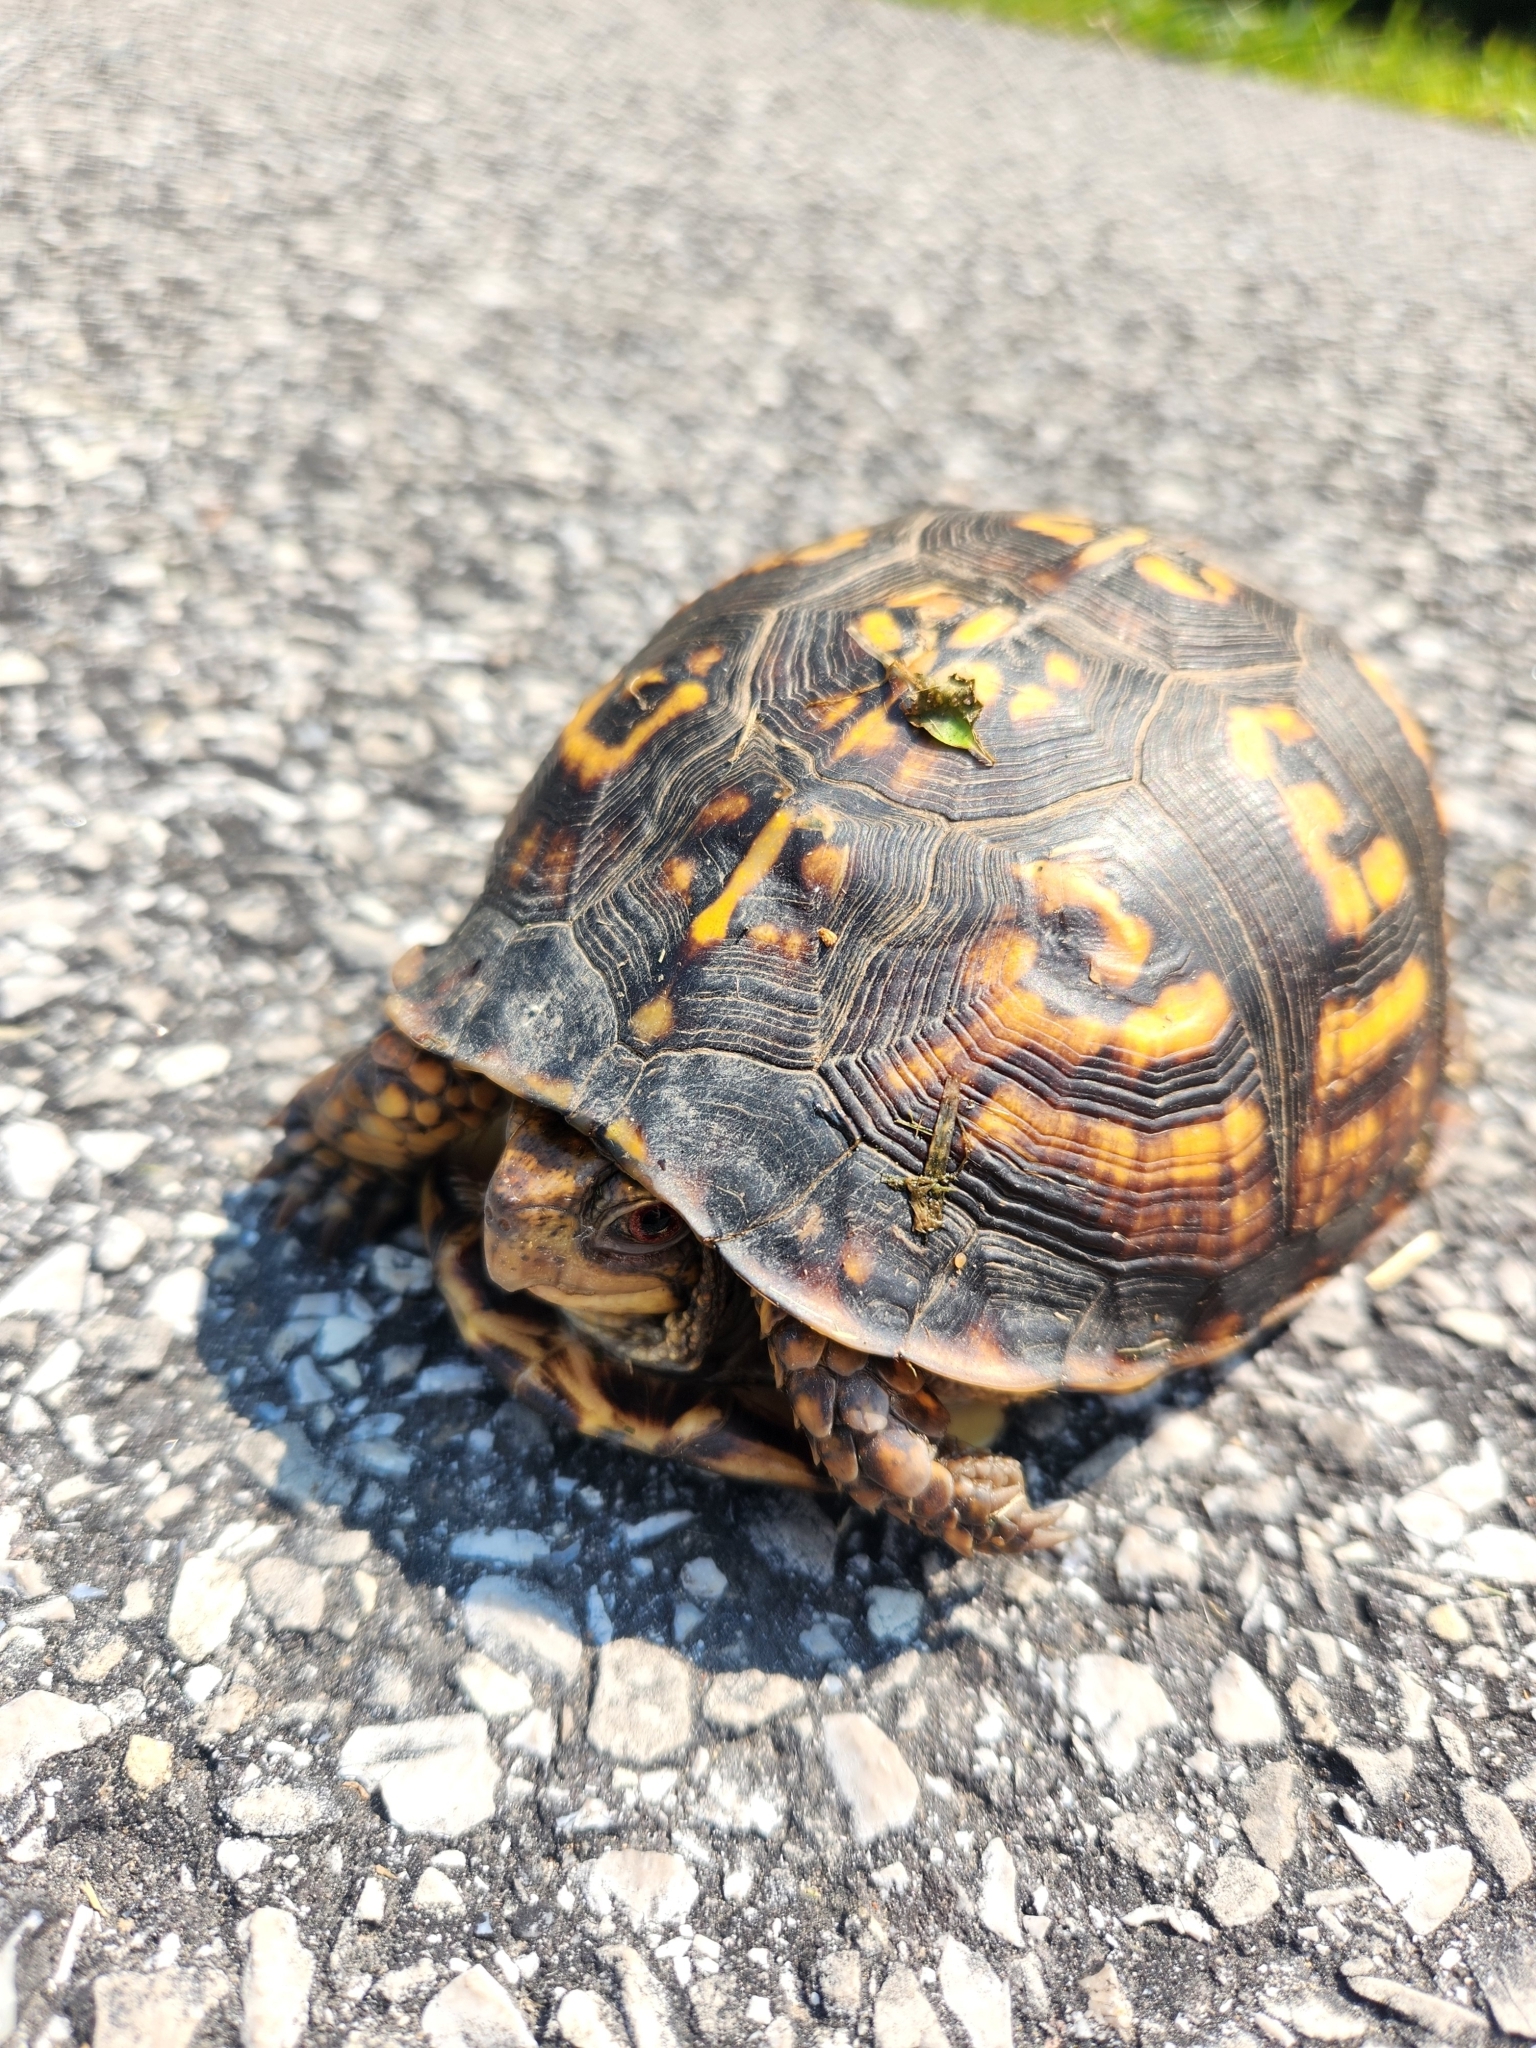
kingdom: Animalia
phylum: Chordata
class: Testudines
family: Emydidae
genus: Terrapene
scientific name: Terrapene carolina
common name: Common box turtle
